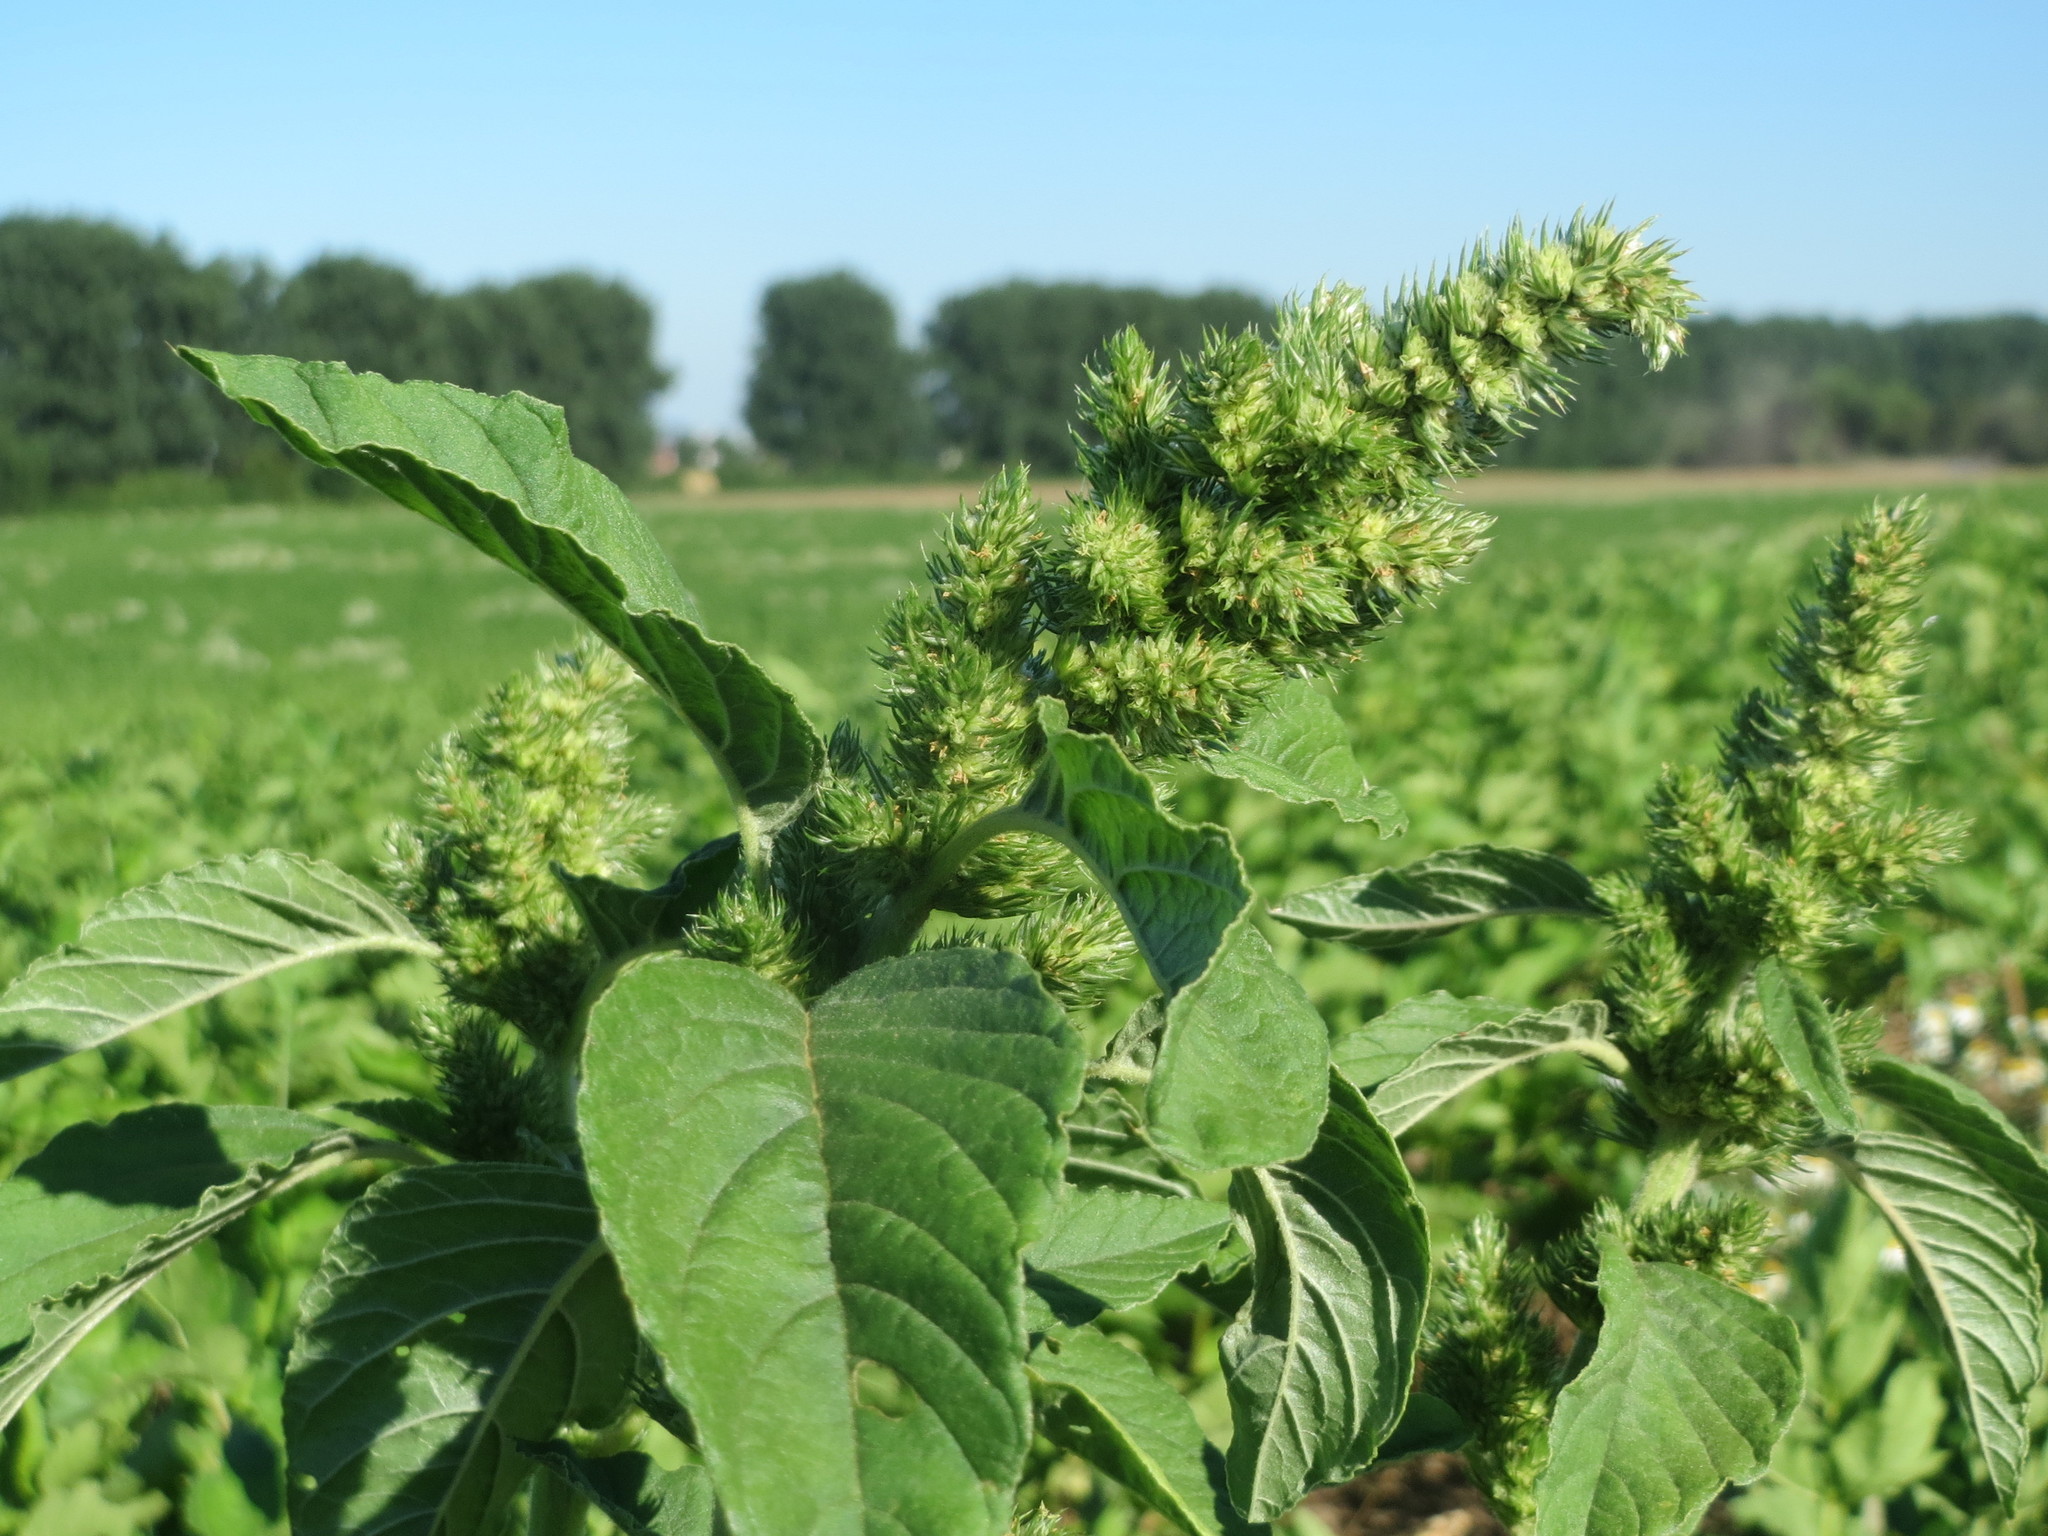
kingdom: Plantae
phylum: Tracheophyta
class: Magnoliopsida
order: Caryophyllales
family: Amaranthaceae
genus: Amaranthus
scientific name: Amaranthus retroflexus
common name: Redroot amaranth
